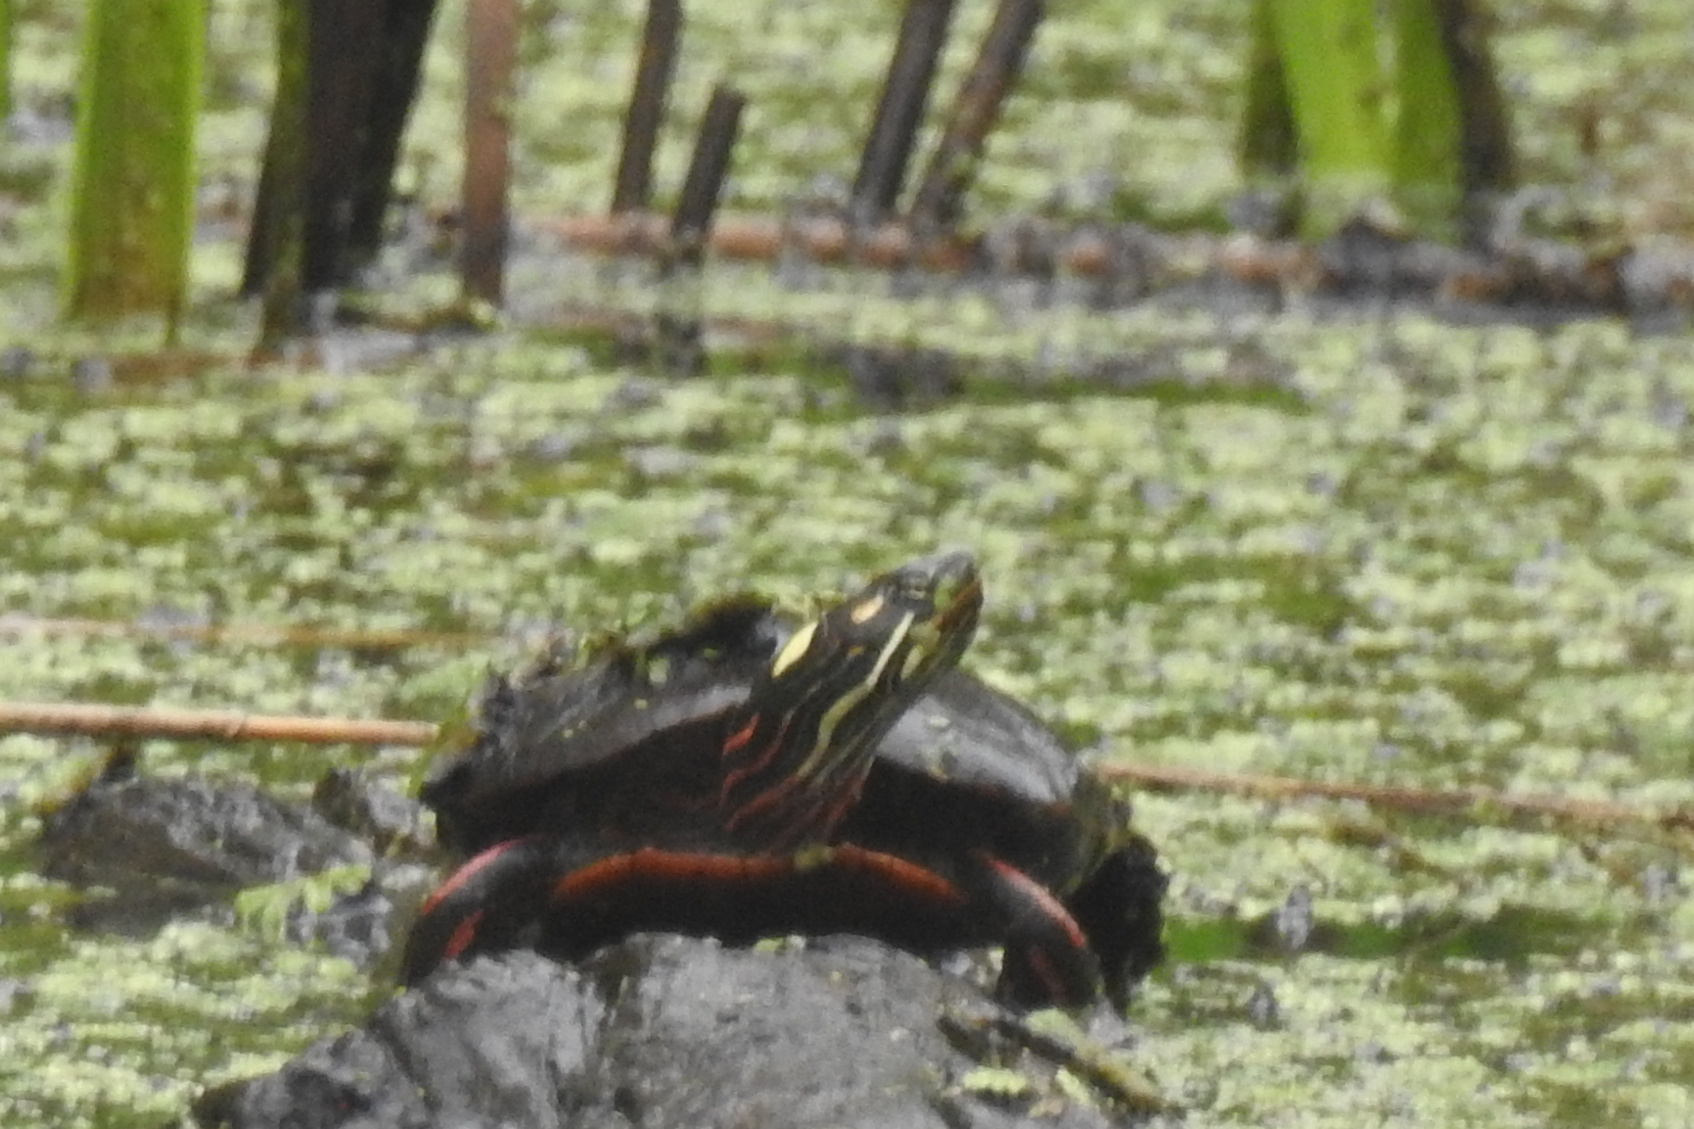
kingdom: Animalia
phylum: Chordata
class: Testudines
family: Emydidae
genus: Chrysemys
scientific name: Chrysemys picta
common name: Painted turtle
